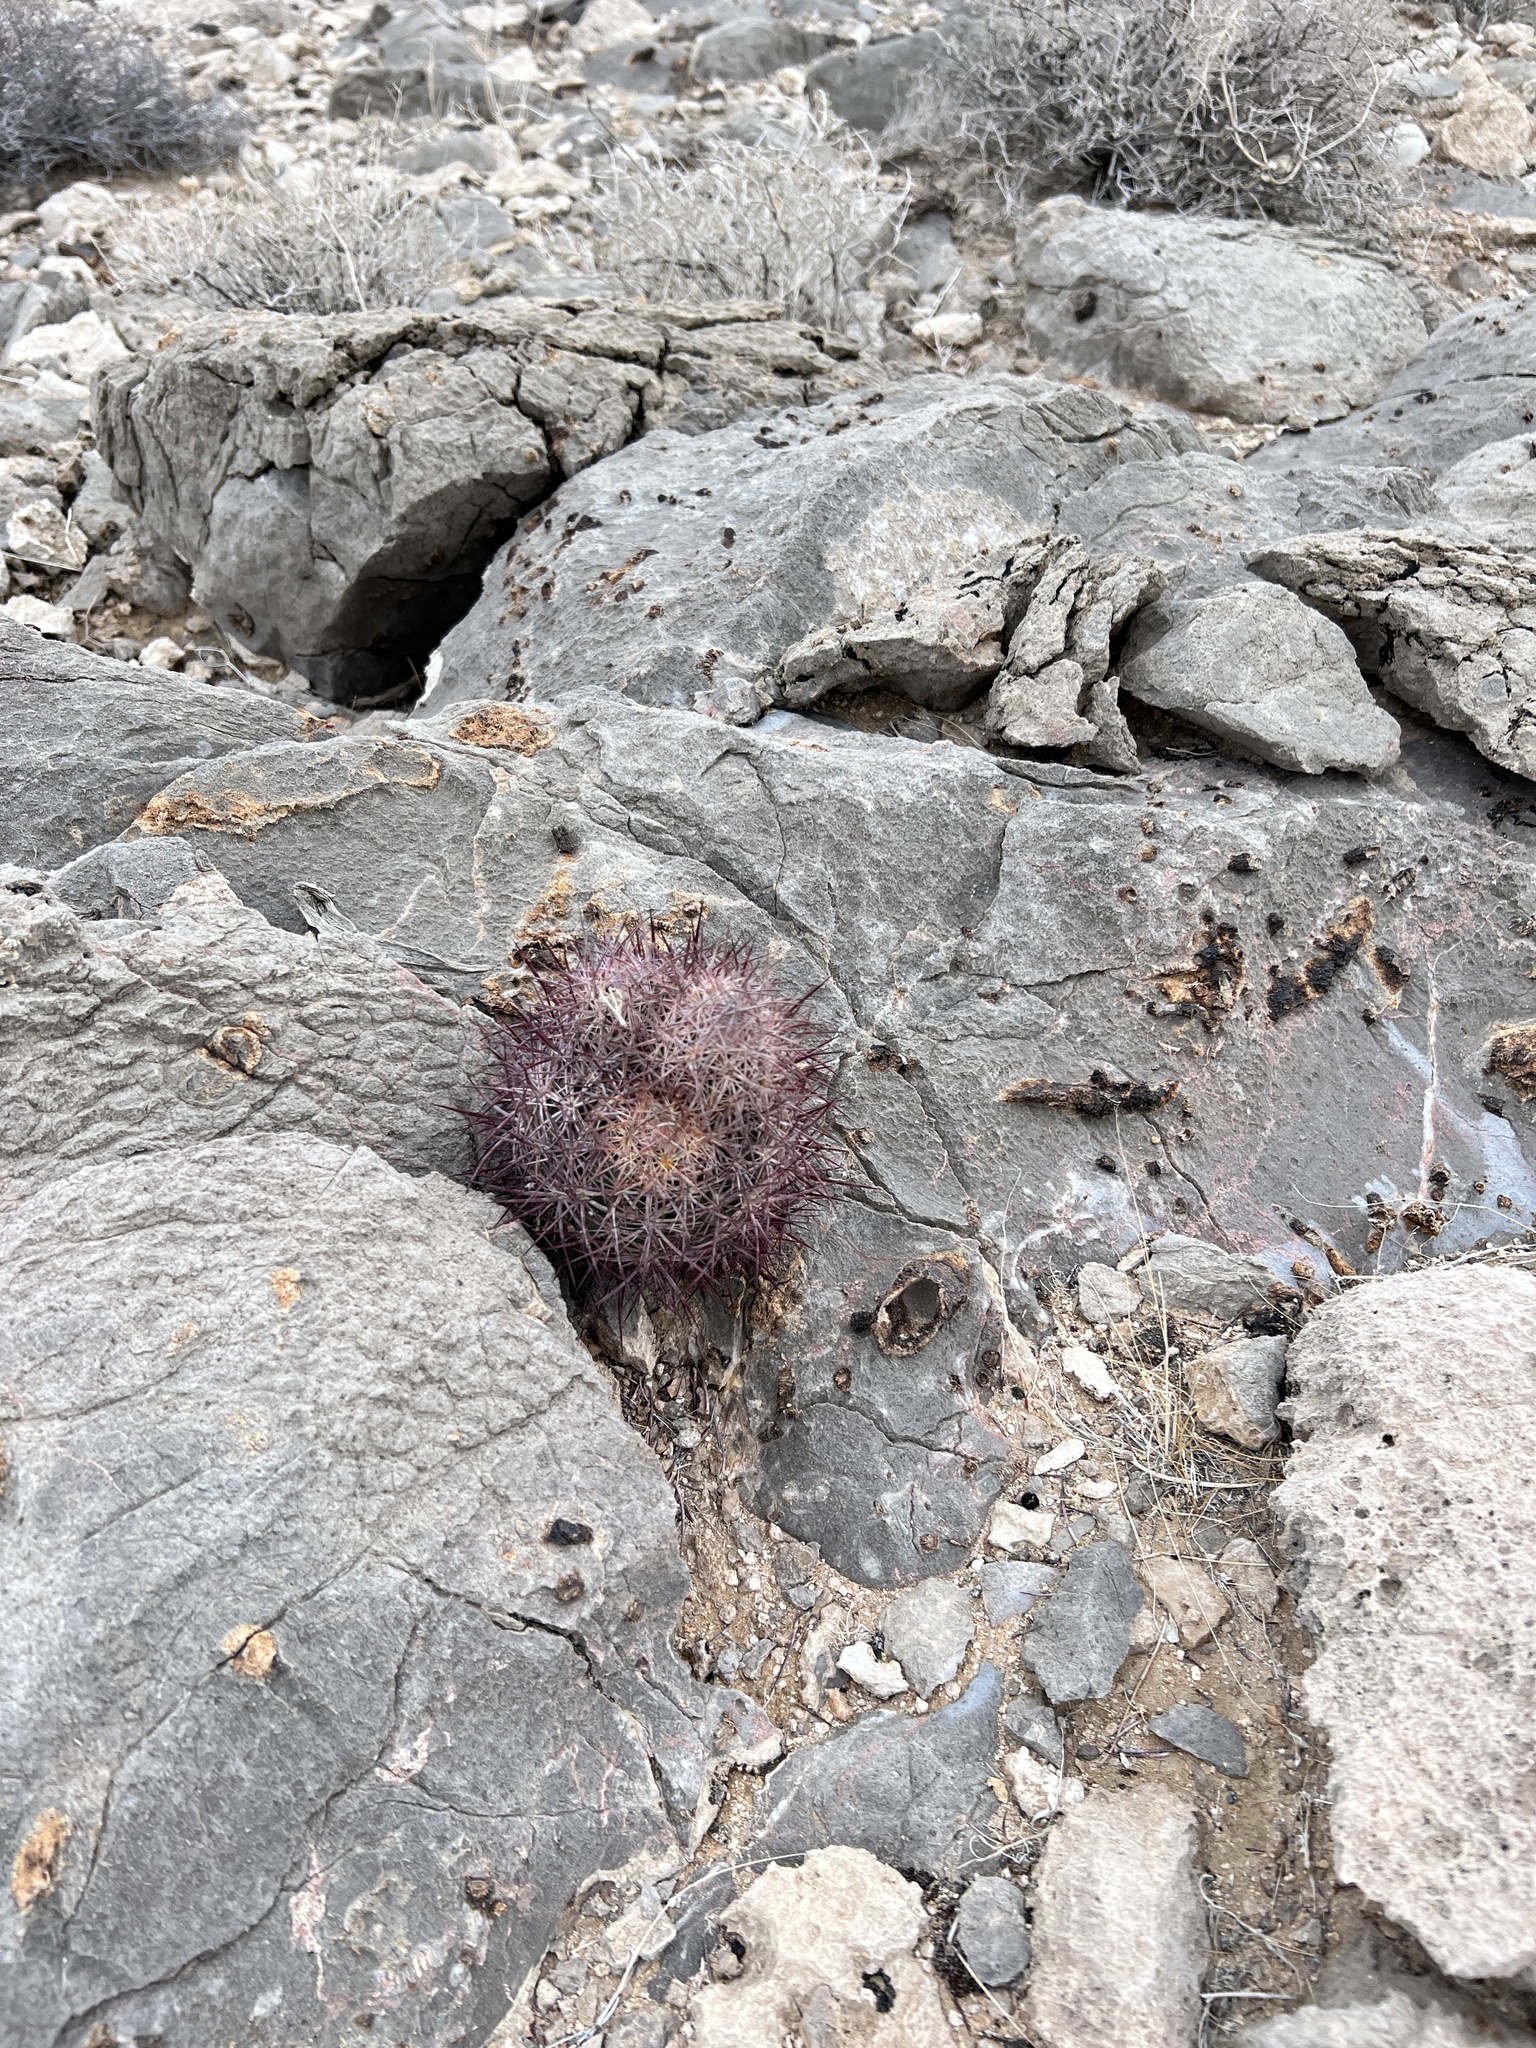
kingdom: Plantae
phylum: Tracheophyta
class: Magnoliopsida
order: Caryophyllales
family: Cactaceae
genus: Sclerocactus
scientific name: Sclerocactus johnsonii
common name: Eight-spine fishhook cactus
